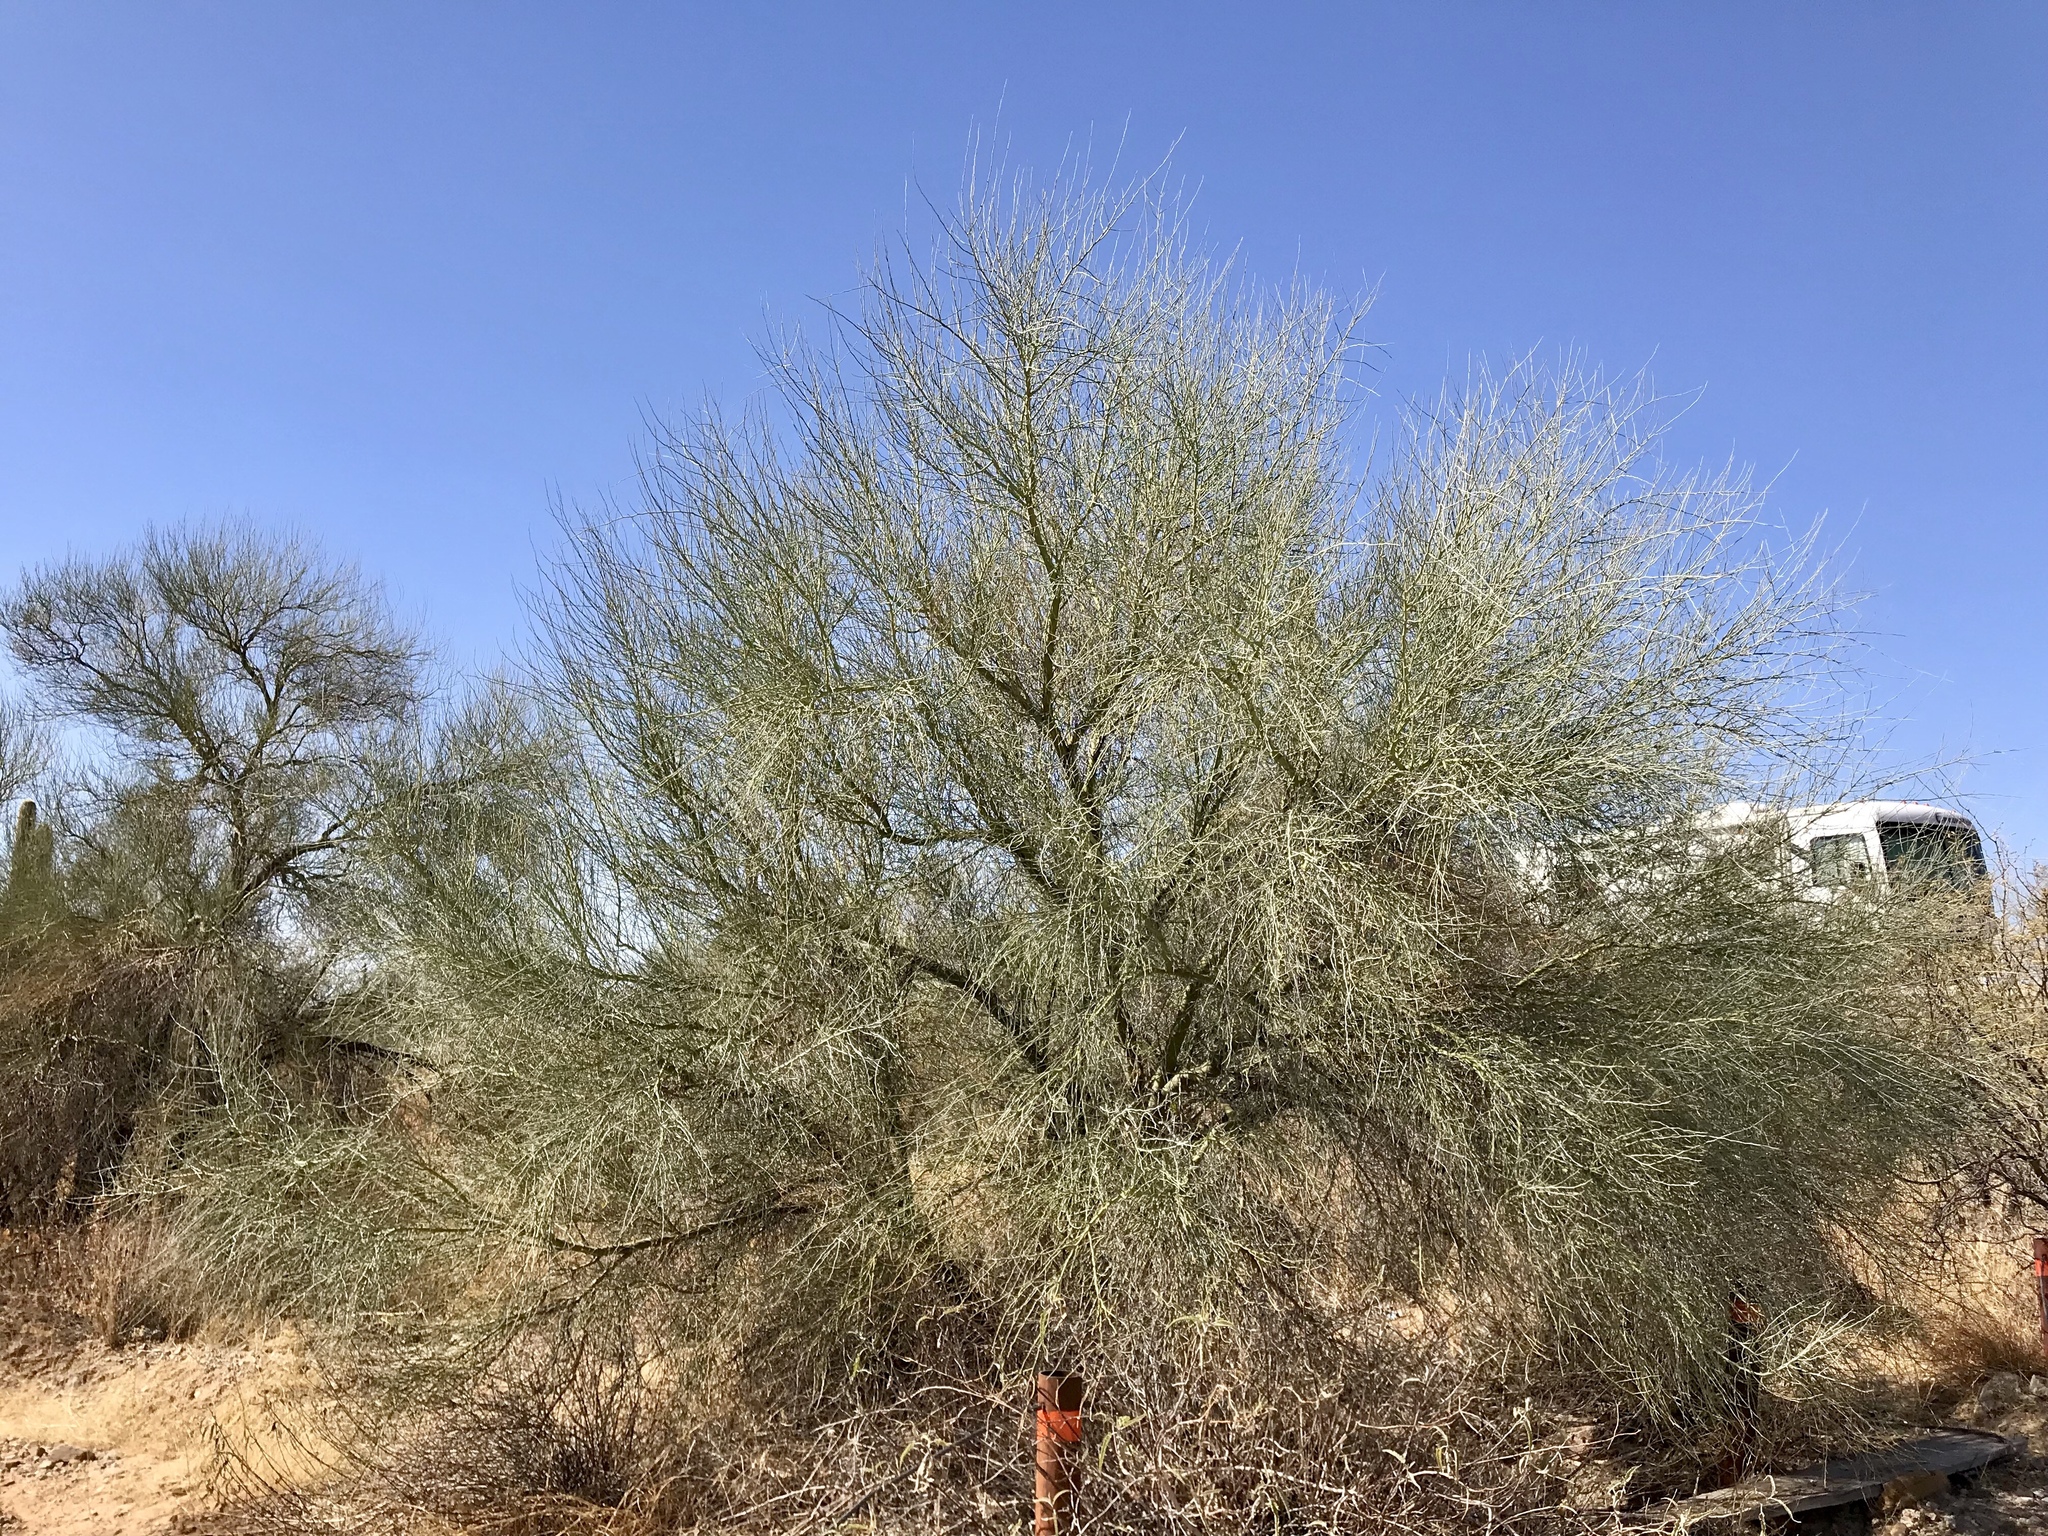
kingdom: Plantae
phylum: Tracheophyta
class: Magnoliopsida
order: Fabales
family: Fabaceae
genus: Parkinsonia
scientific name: Parkinsonia florida
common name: Blue paloverde
